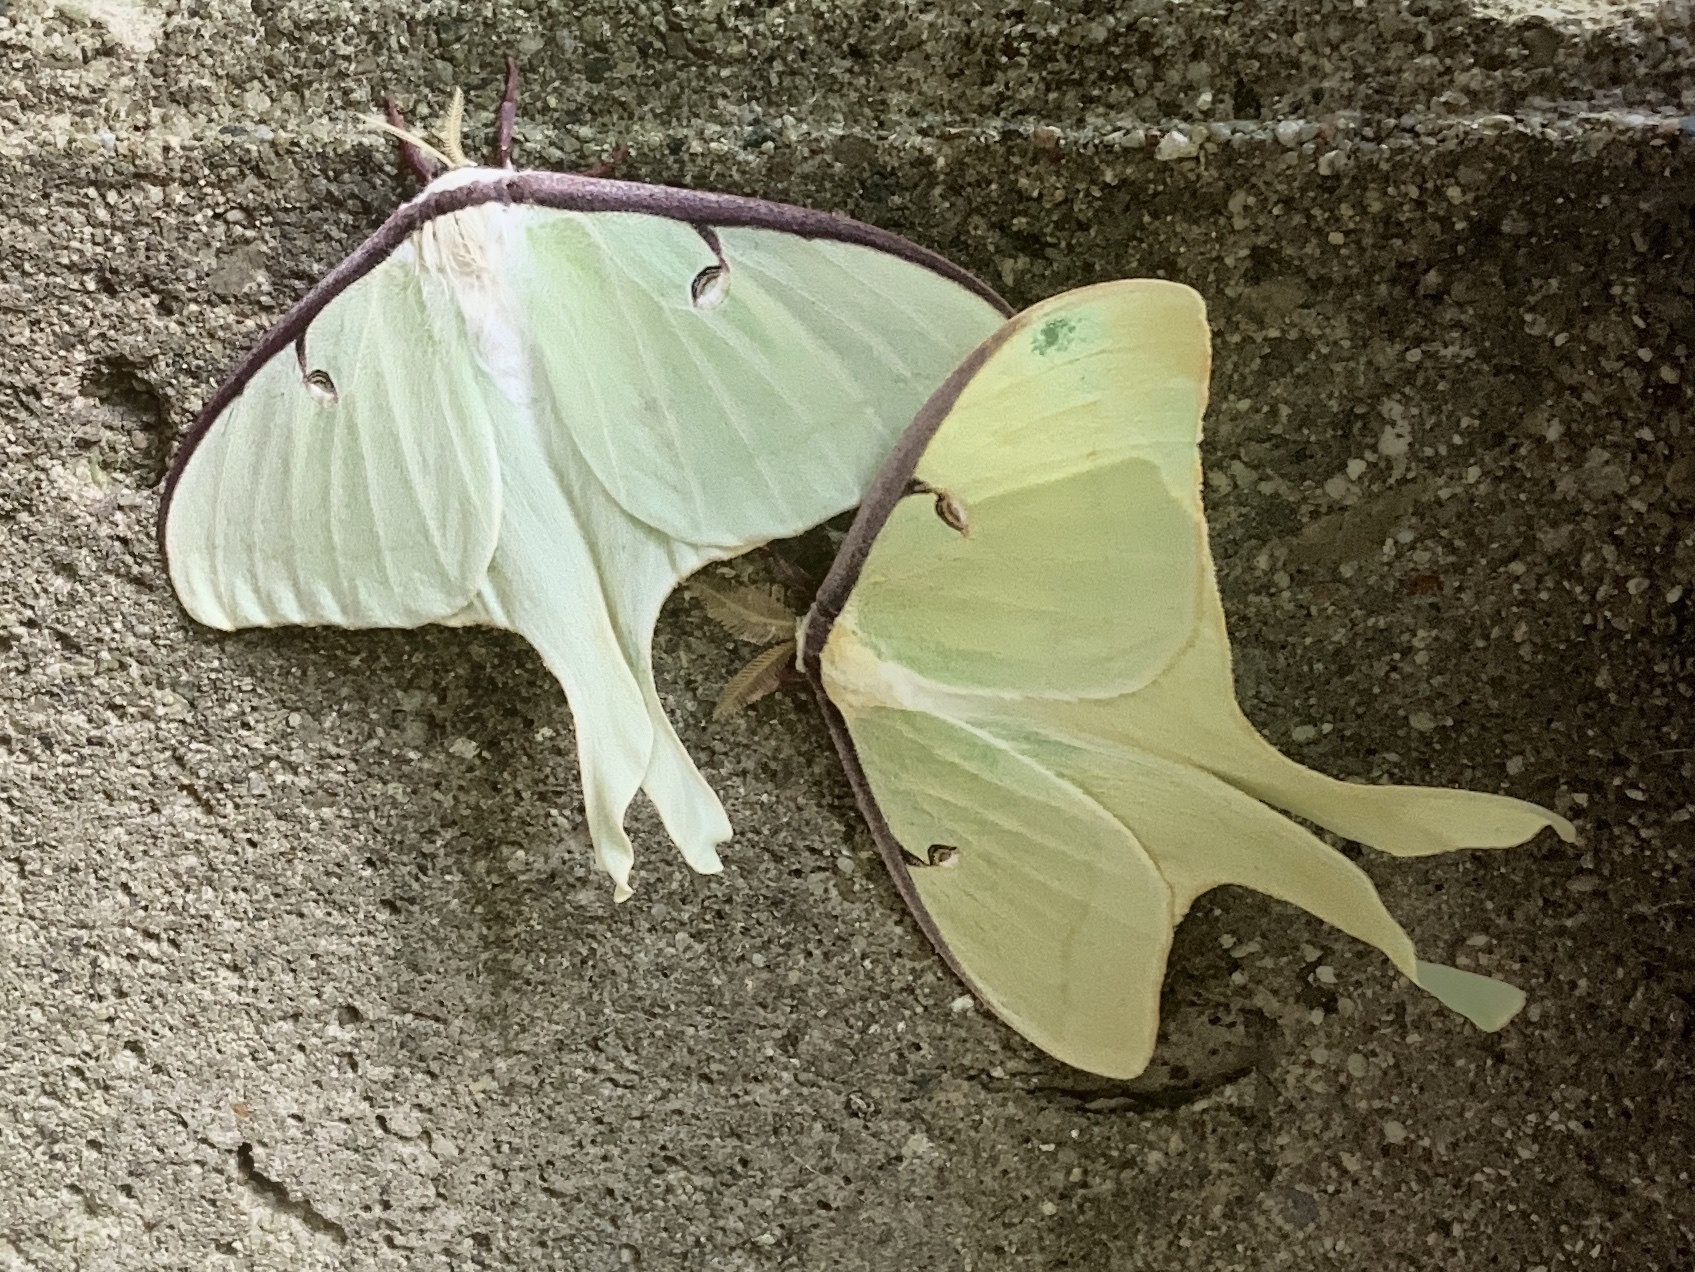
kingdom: Animalia
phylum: Arthropoda
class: Insecta
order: Lepidoptera
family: Saturniidae
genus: Actias
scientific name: Actias luna
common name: Luna moth
